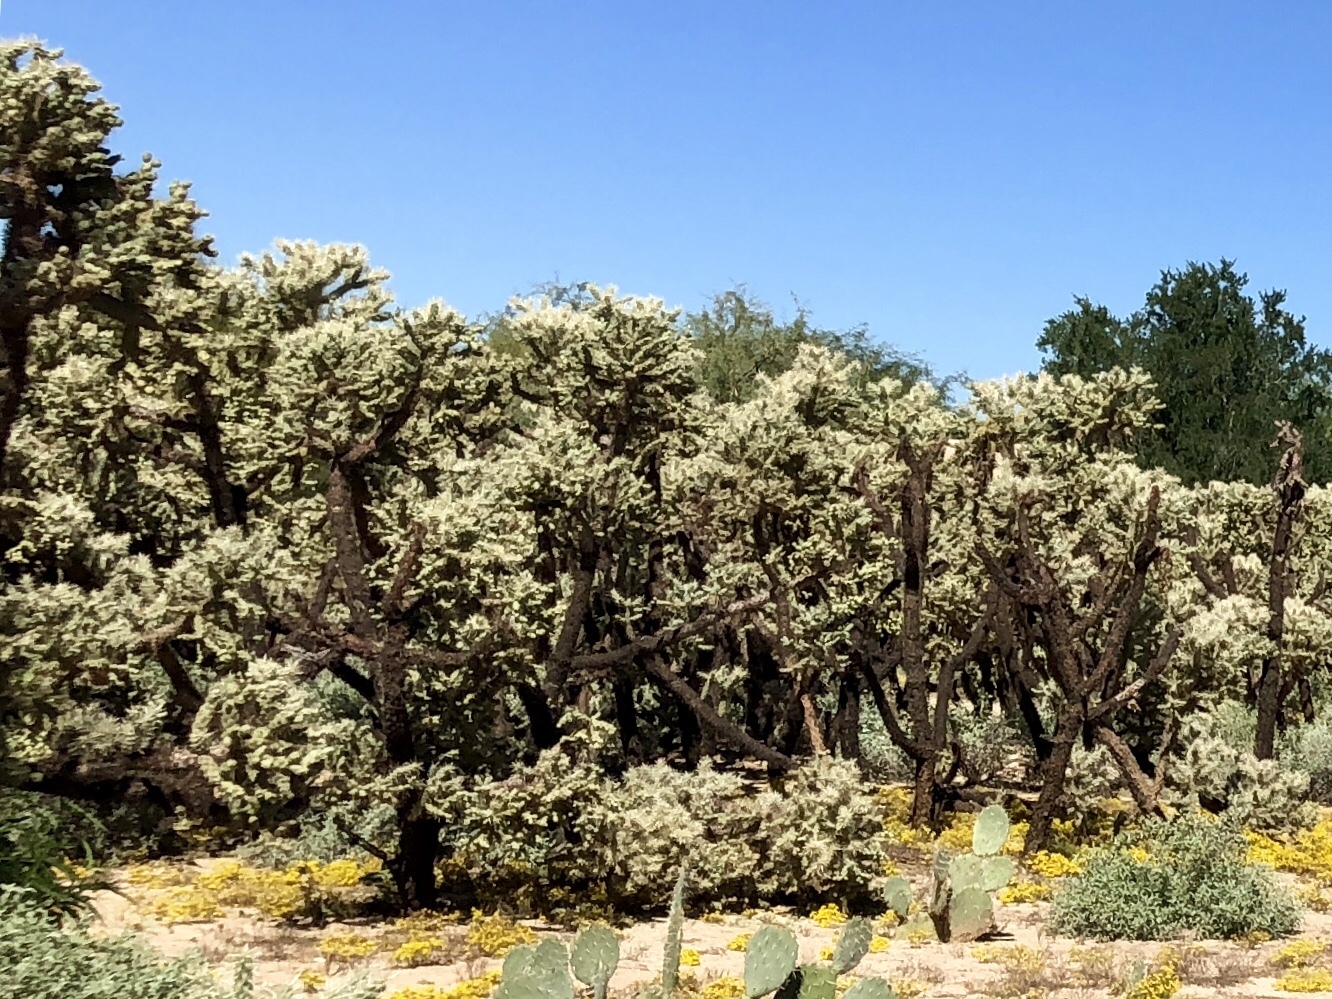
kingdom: Plantae
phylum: Tracheophyta
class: Magnoliopsida
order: Caryophyllales
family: Cactaceae
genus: Cylindropuntia
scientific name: Cylindropuntia fulgida
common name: Jumping cholla
